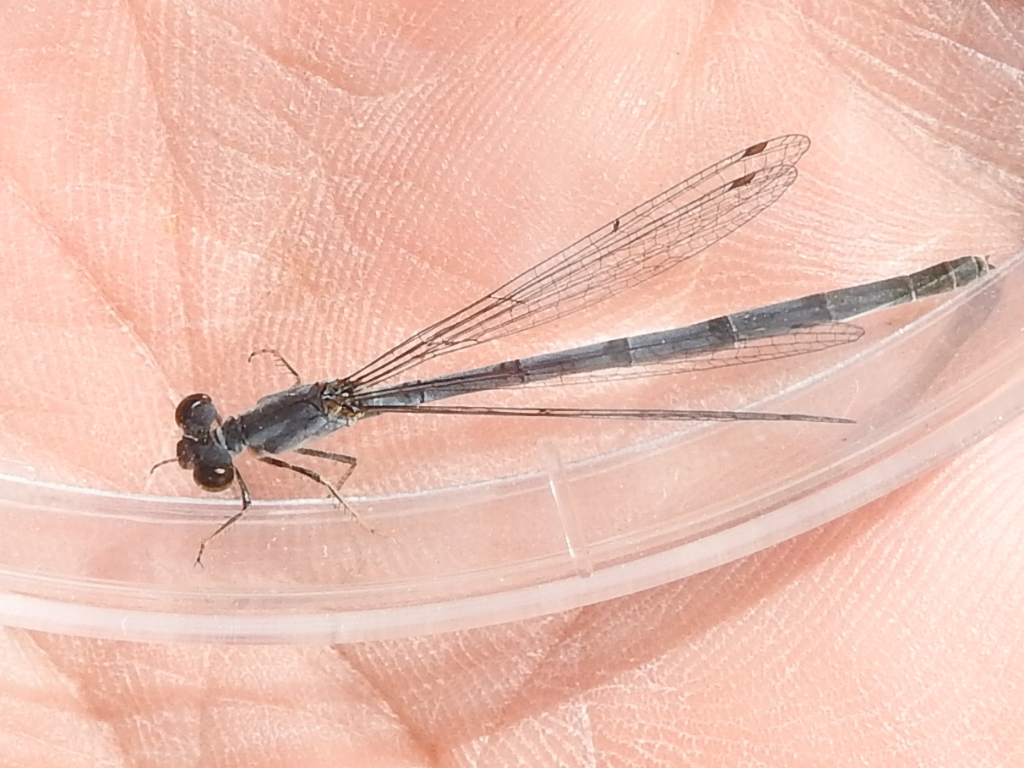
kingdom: Animalia
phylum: Arthropoda
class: Insecta
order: Odonata
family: Coenagrionidae
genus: Ischnura
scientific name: Ischnura posita
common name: Fragile forktail
